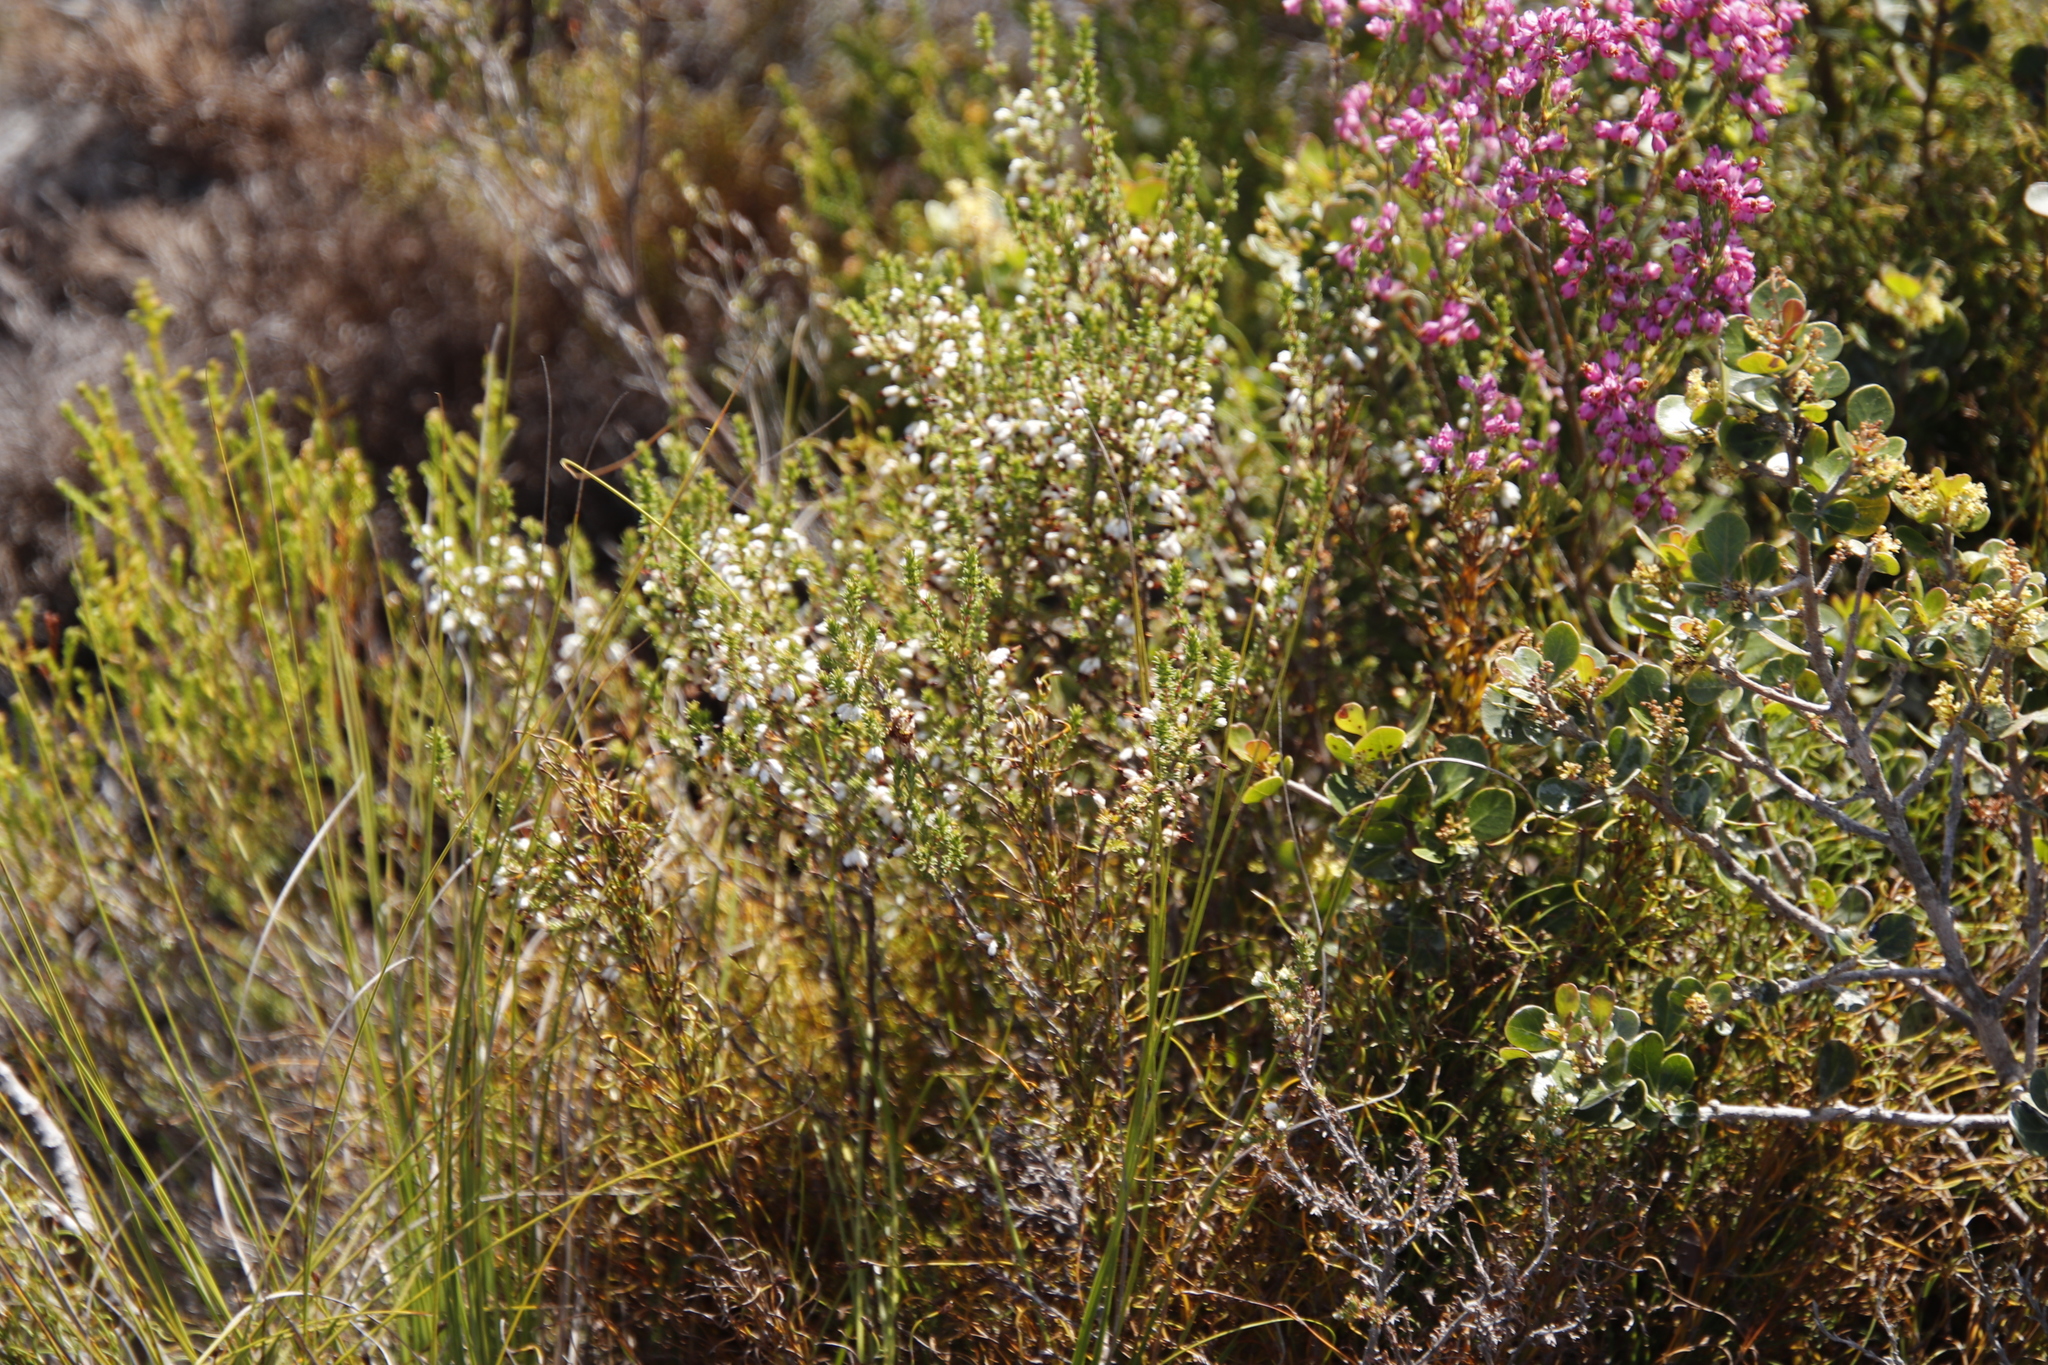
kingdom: Plantae
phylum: Tracheophyta
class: Magnoliopsida
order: Ericales
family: Ericaceae
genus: Erica
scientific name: Erica imbricata
